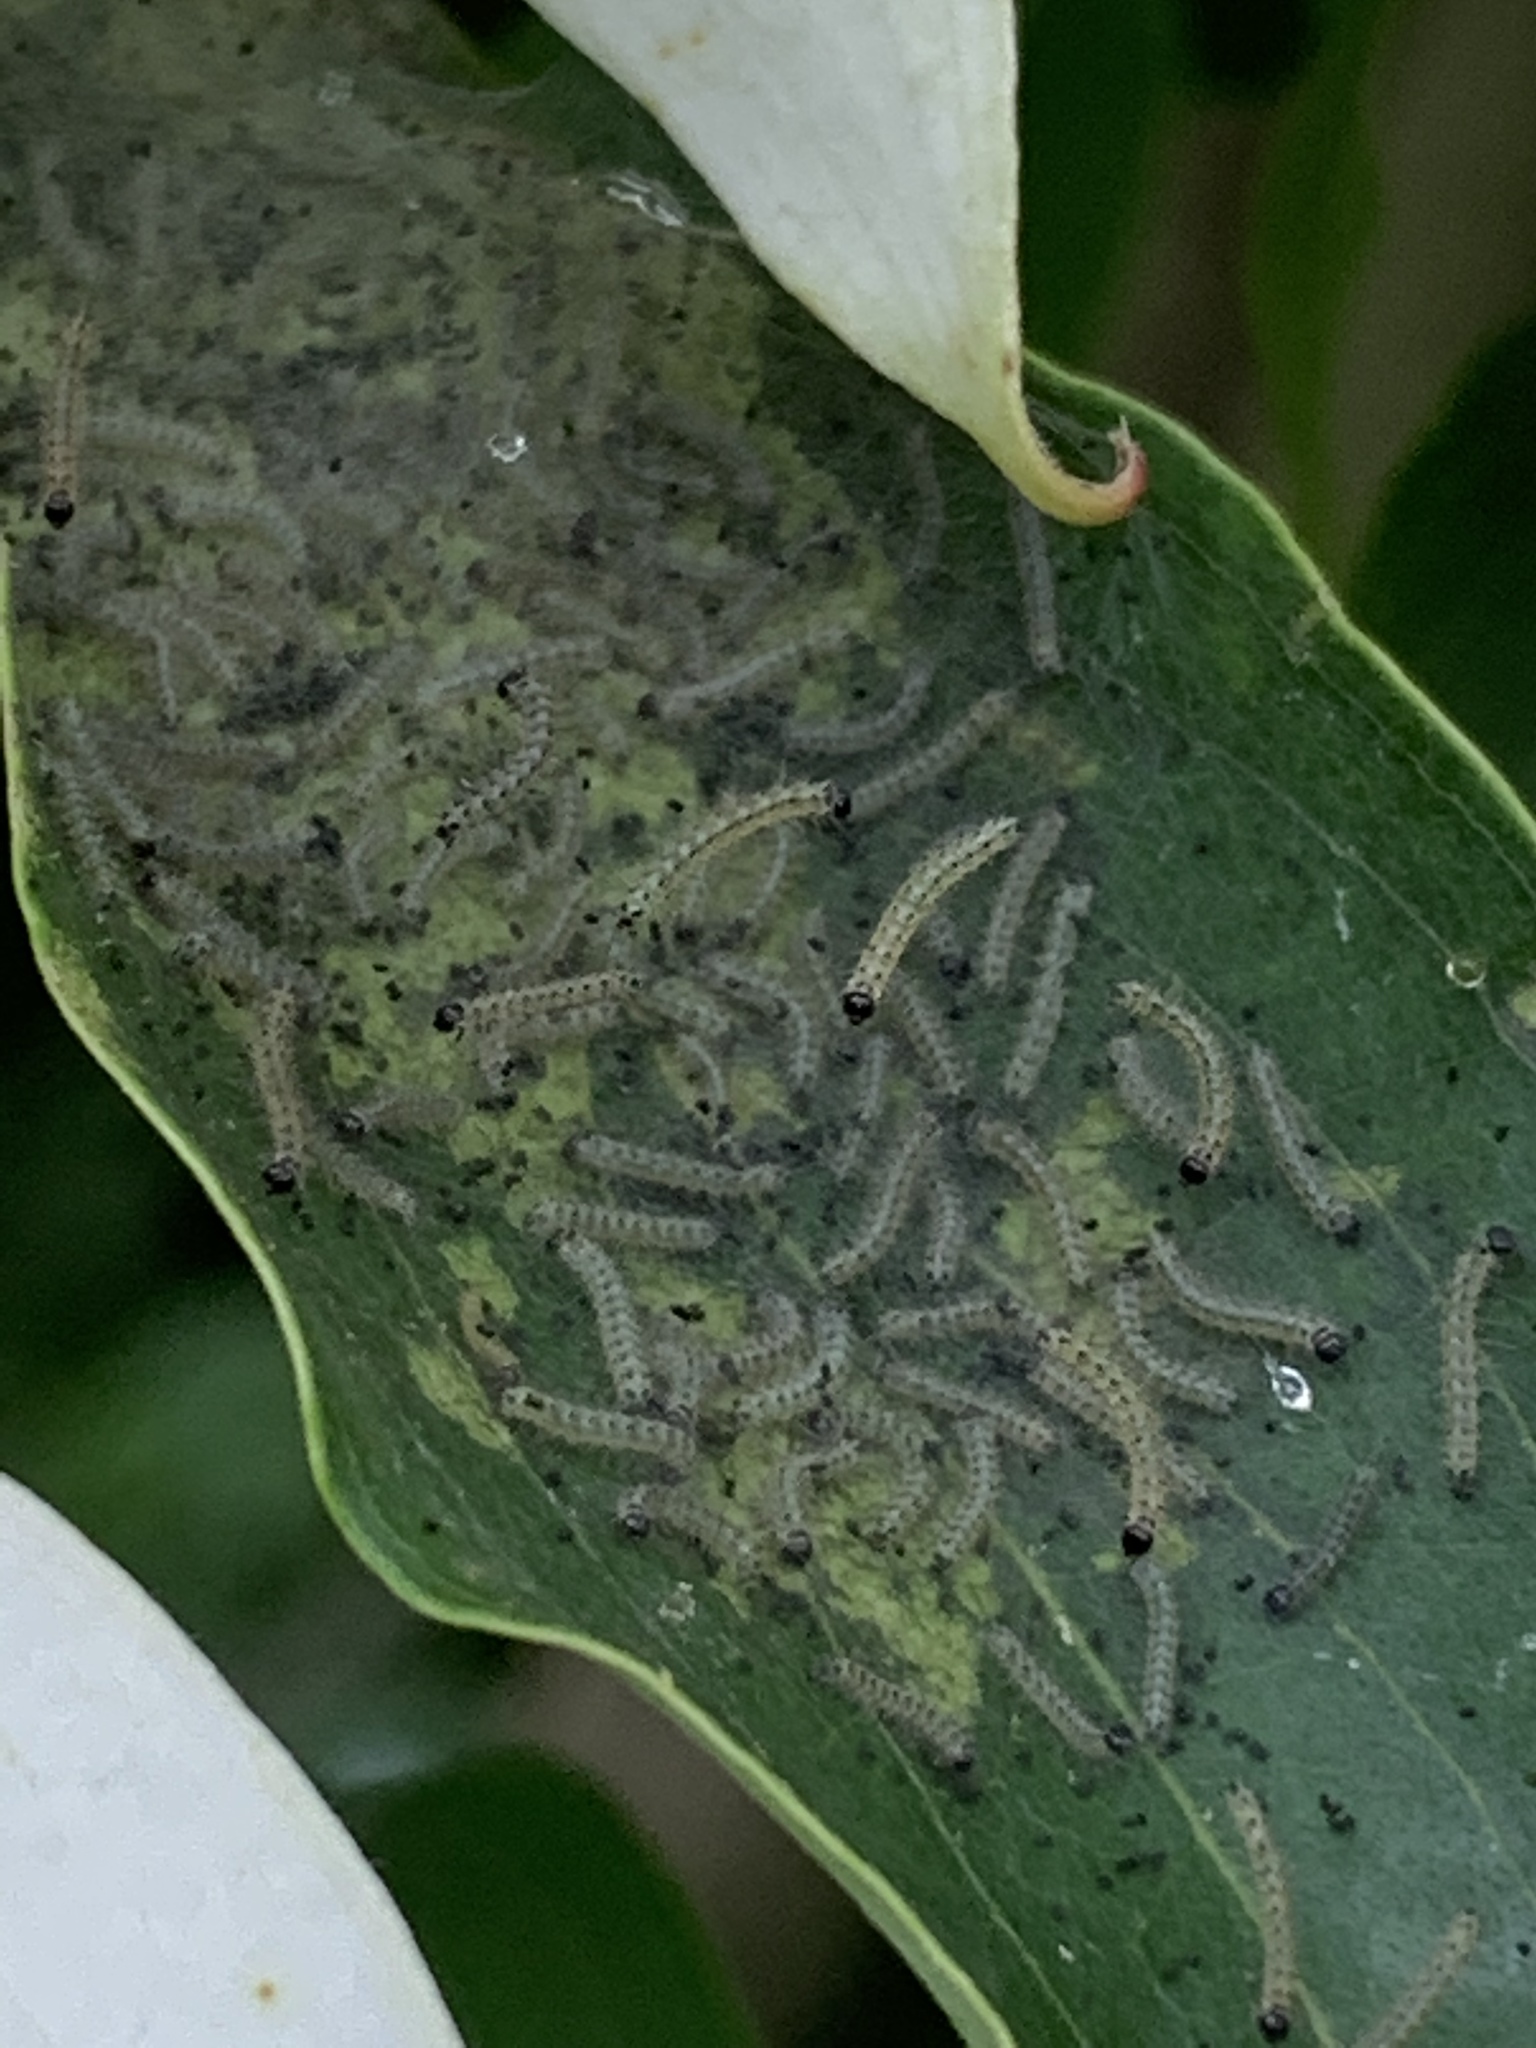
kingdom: Animalia
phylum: Arthropoda
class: Insecta
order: Lepidoptera
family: Erebidae
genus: Hyphantria
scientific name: Hyphantria cunea
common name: American white moth
